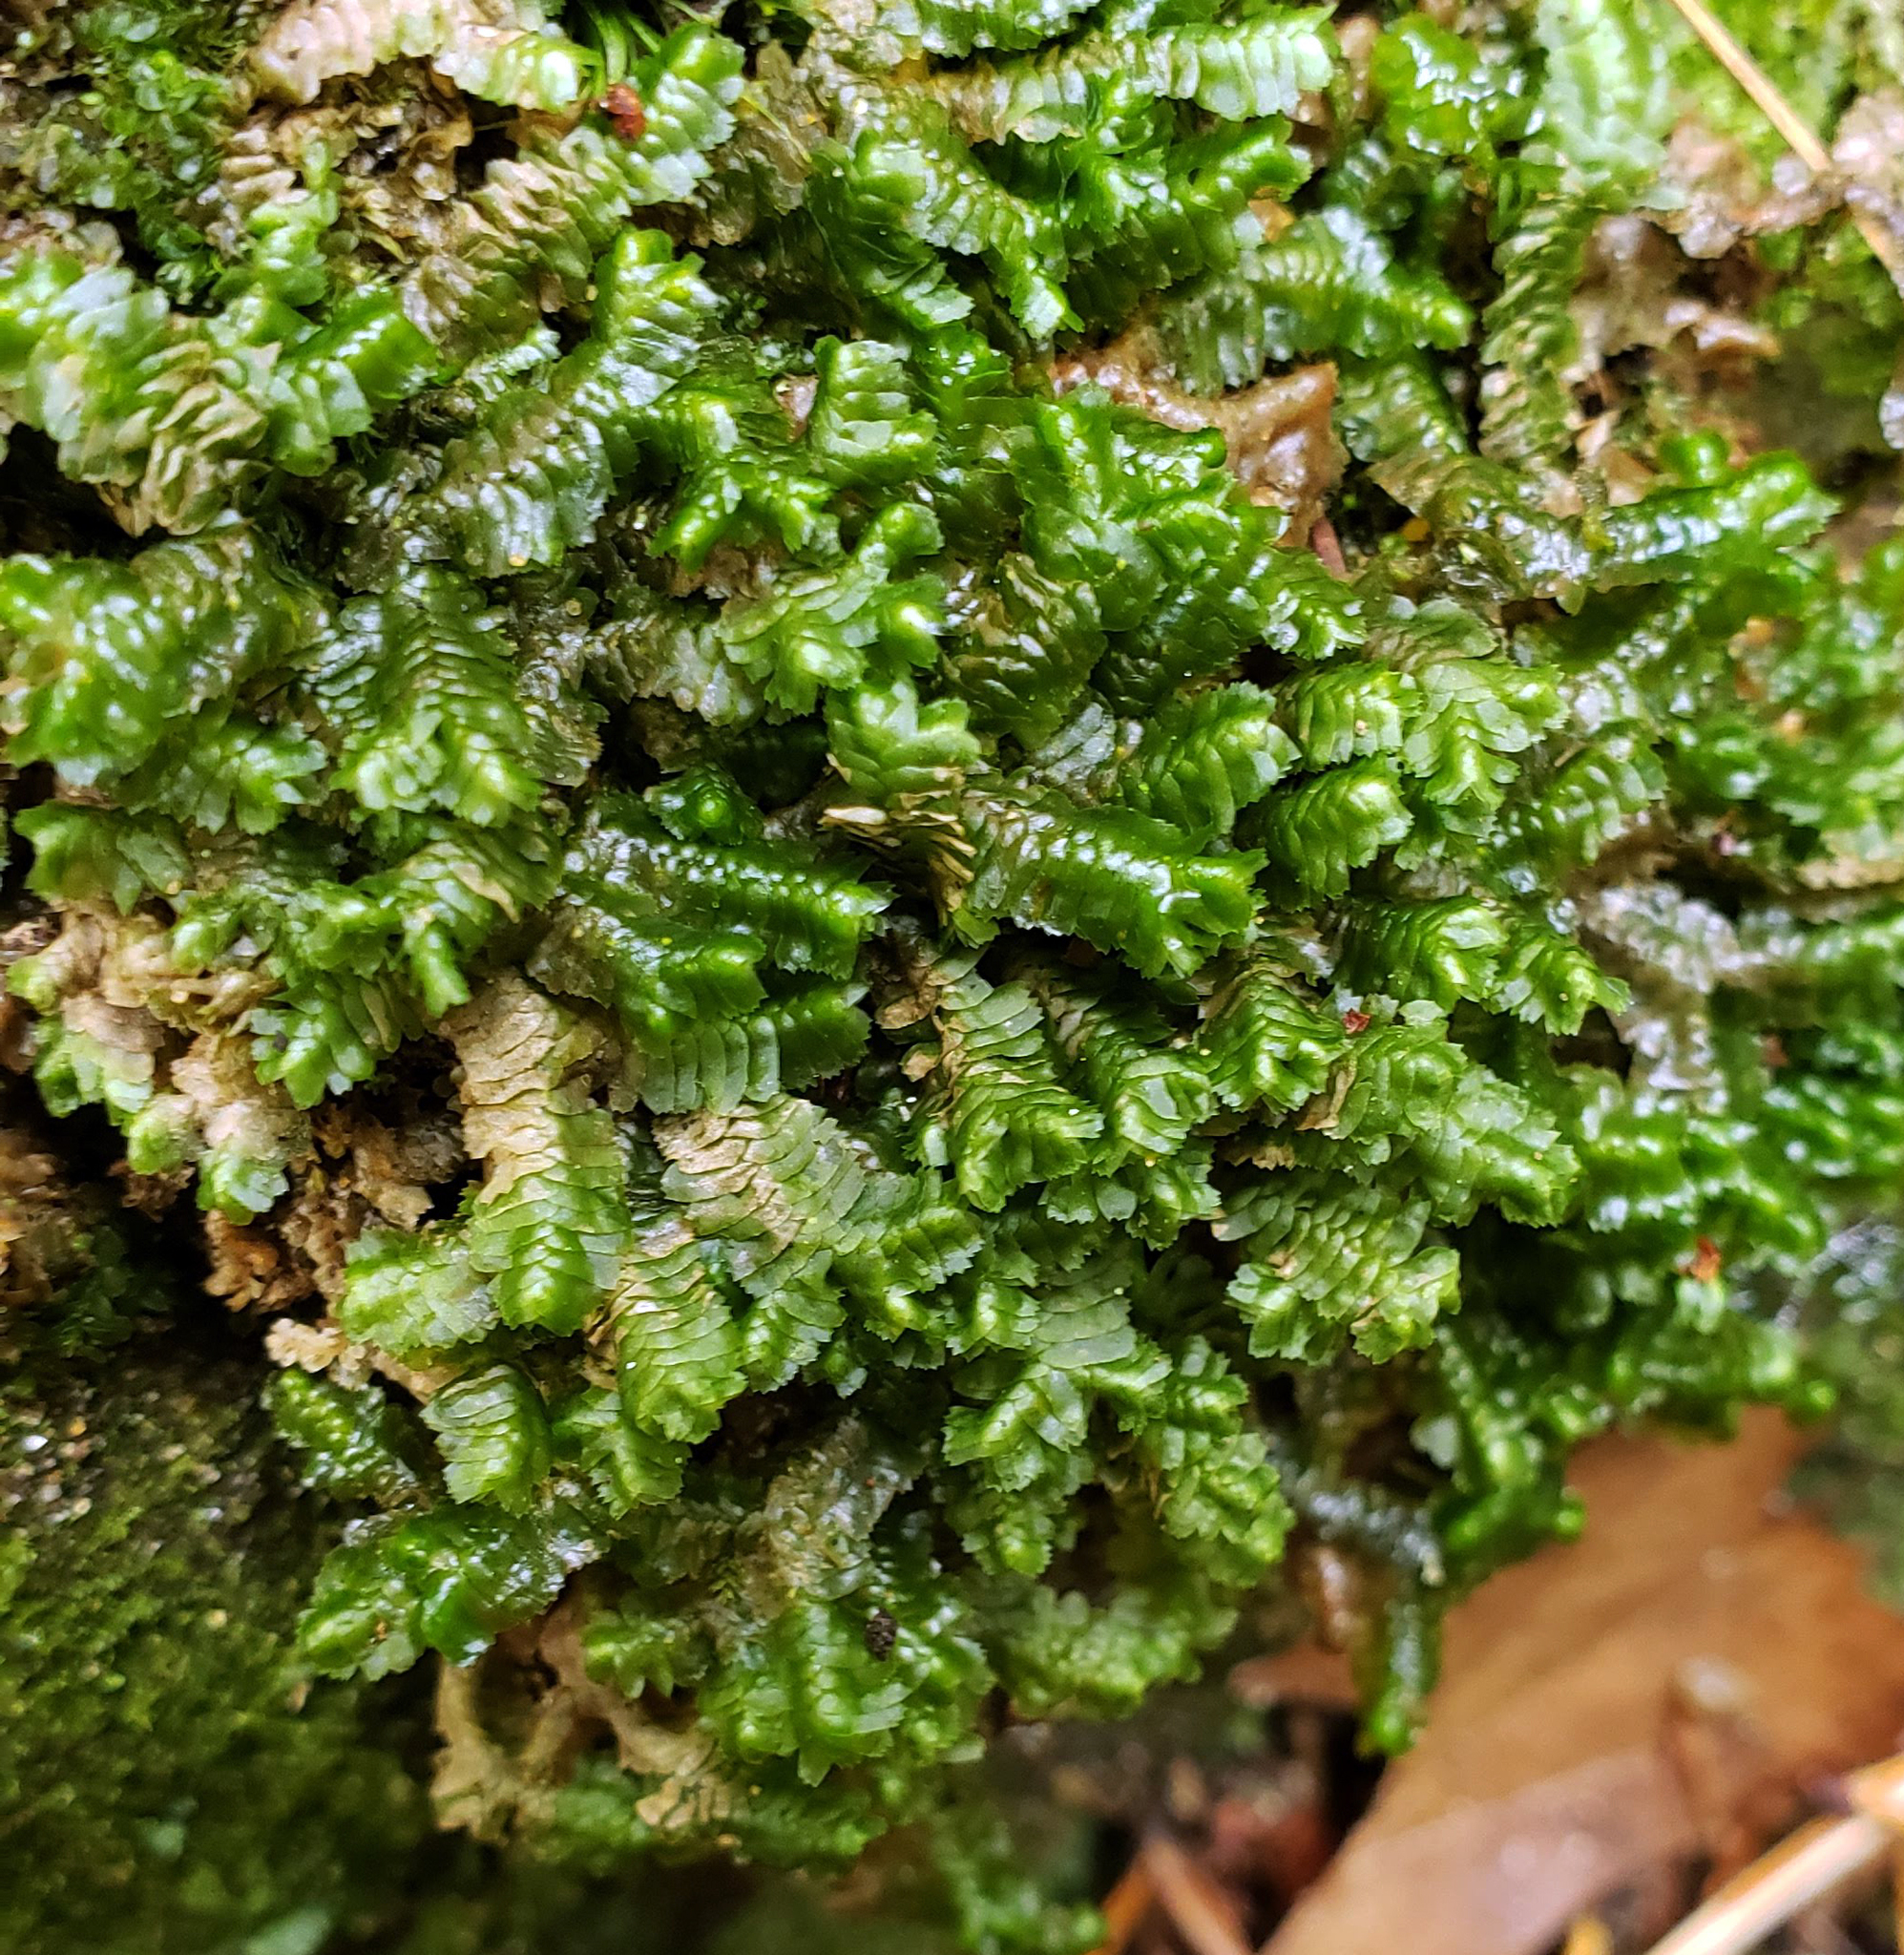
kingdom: Plantae
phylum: Marchantiophyta
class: Jungermanniopsida
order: Jungermanniales
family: Lepidoziaceae
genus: Bazzania
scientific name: Bazzania trilobata
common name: Three-lobed whipwort
